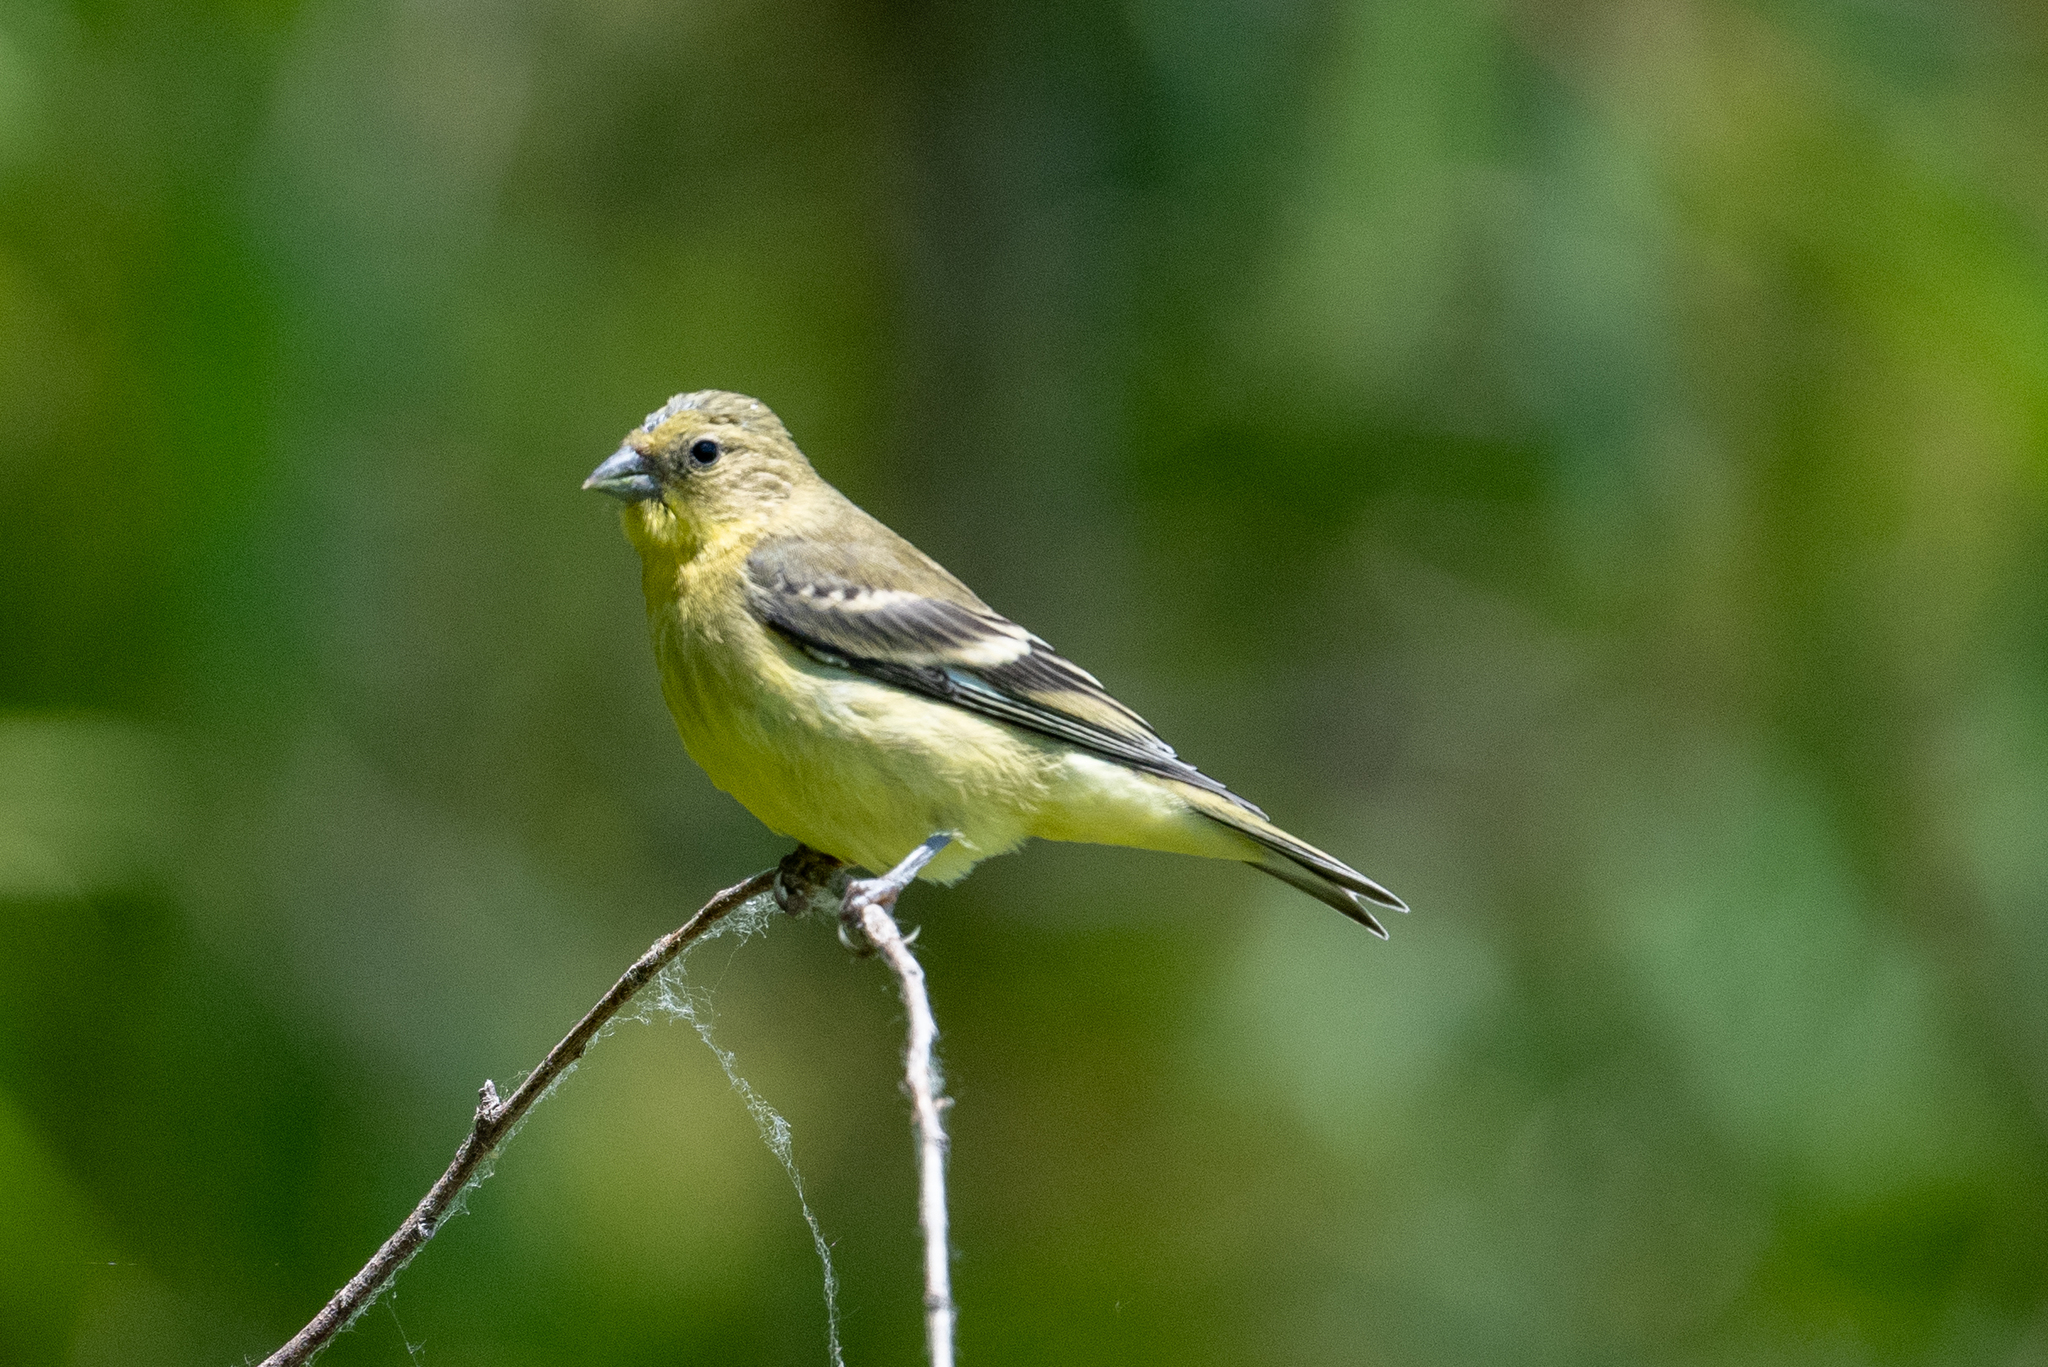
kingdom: Animalia
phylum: Chordata
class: Aves
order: Passeriformes
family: Fringillidae
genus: Spinus
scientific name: Spinus psaltria
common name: Lesser goldfinch
